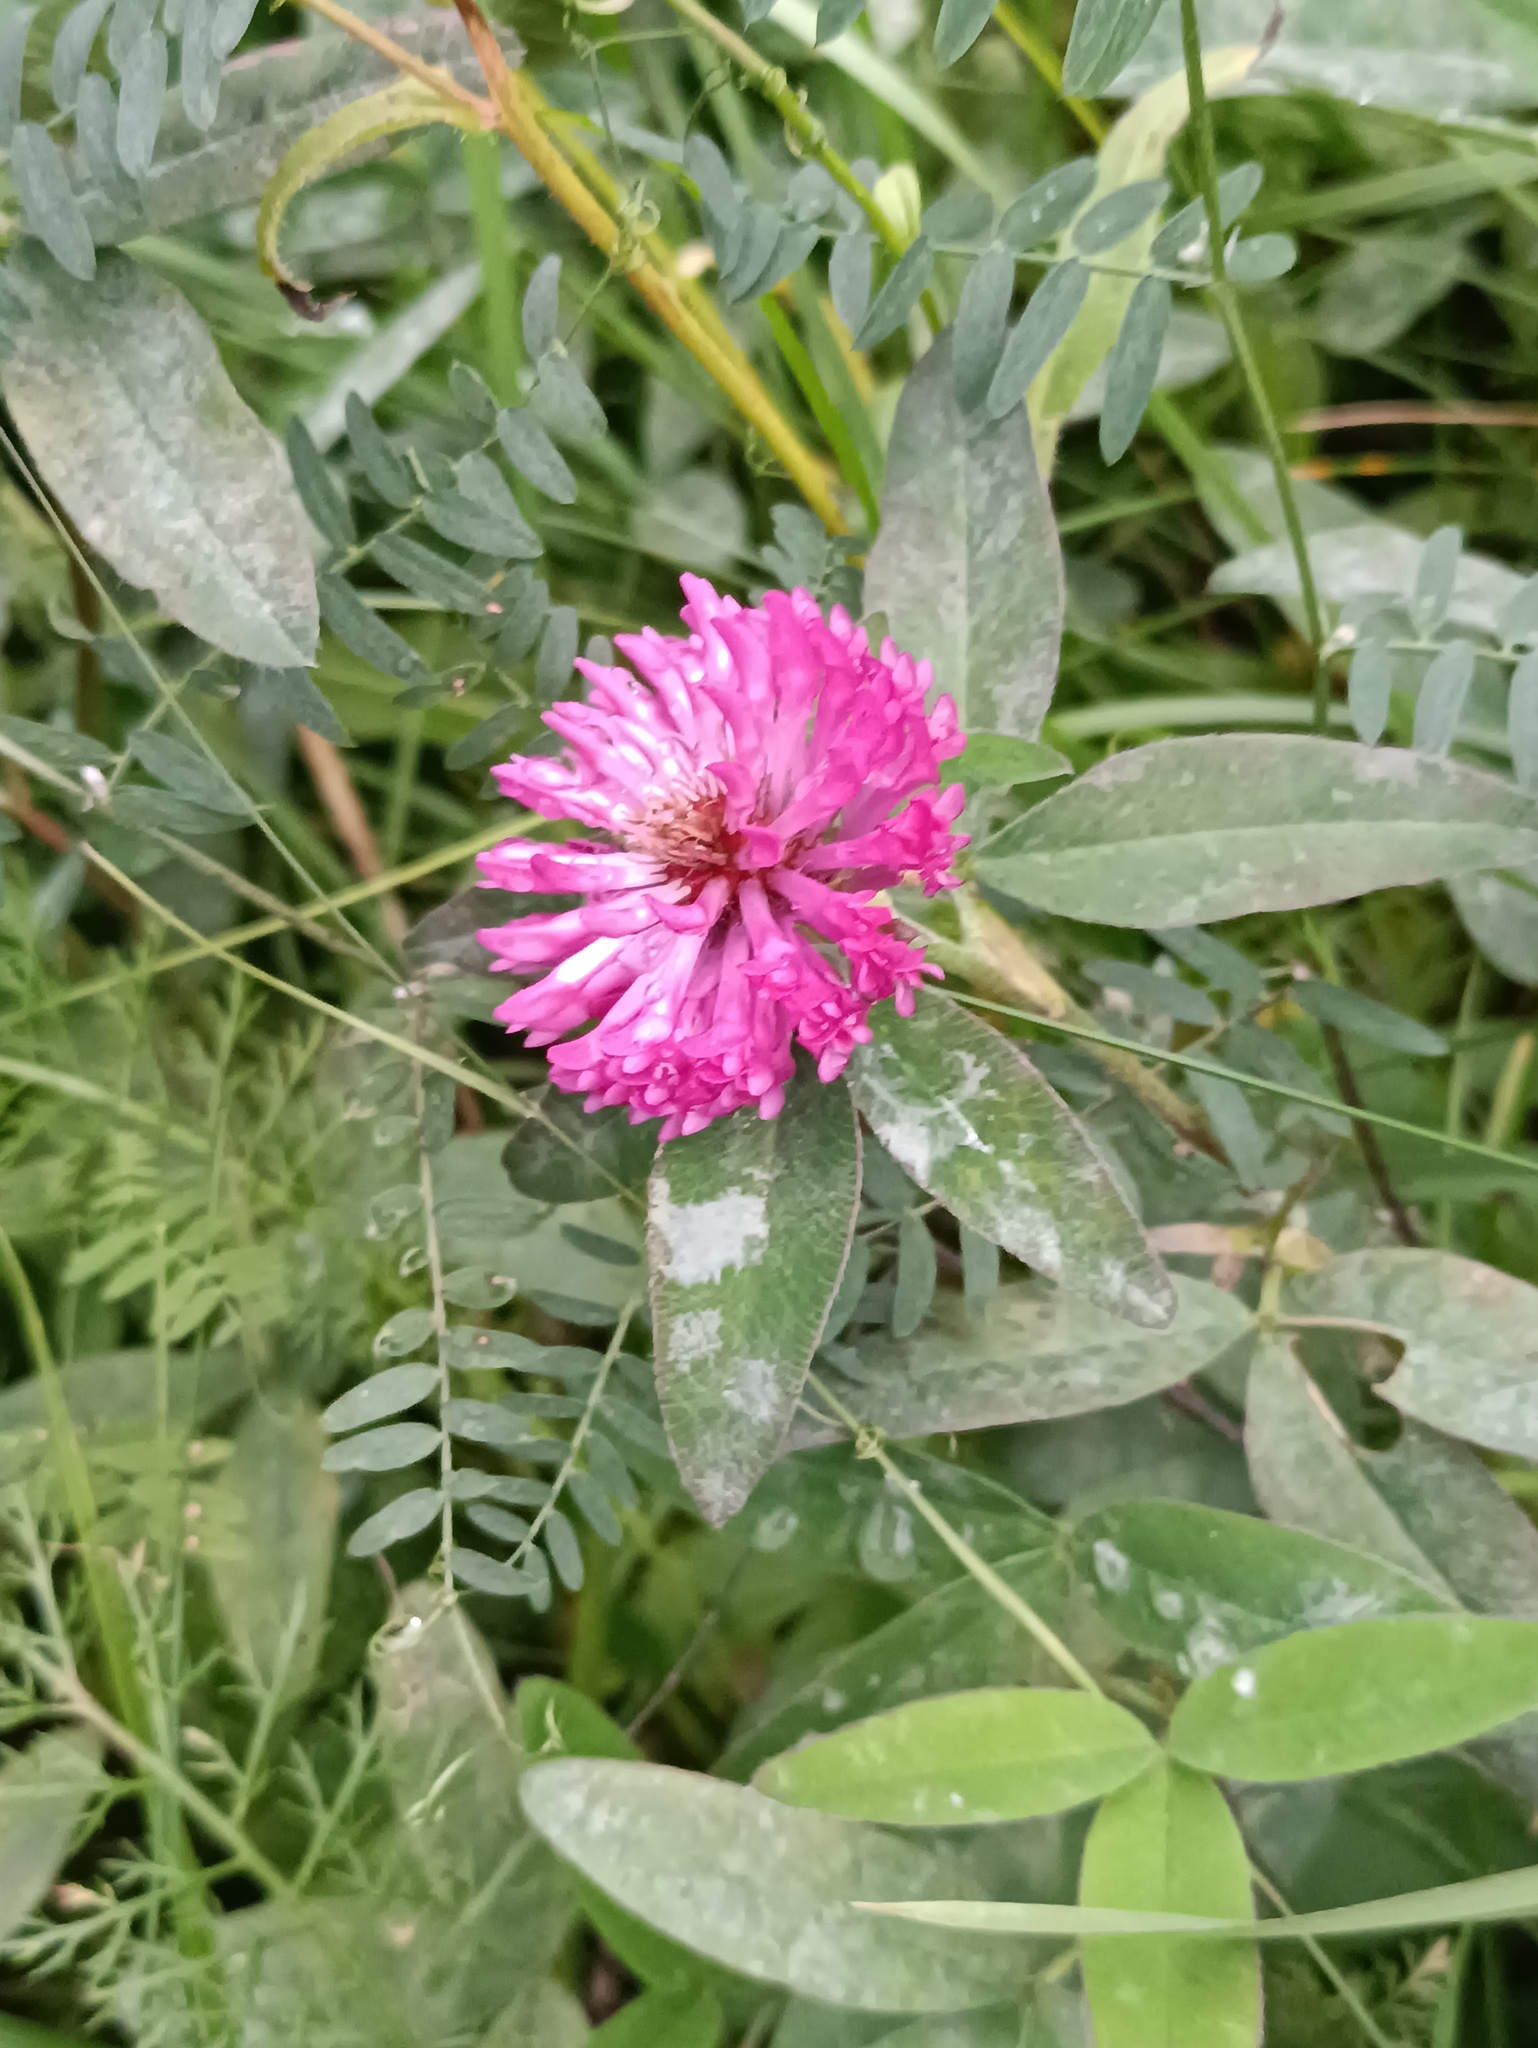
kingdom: Plantae
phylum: Tracheophyta
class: Magnoliopsida
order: Fabales
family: Fabaceae
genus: Trifolium
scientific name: Trifolium medium
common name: Zigzag clover
